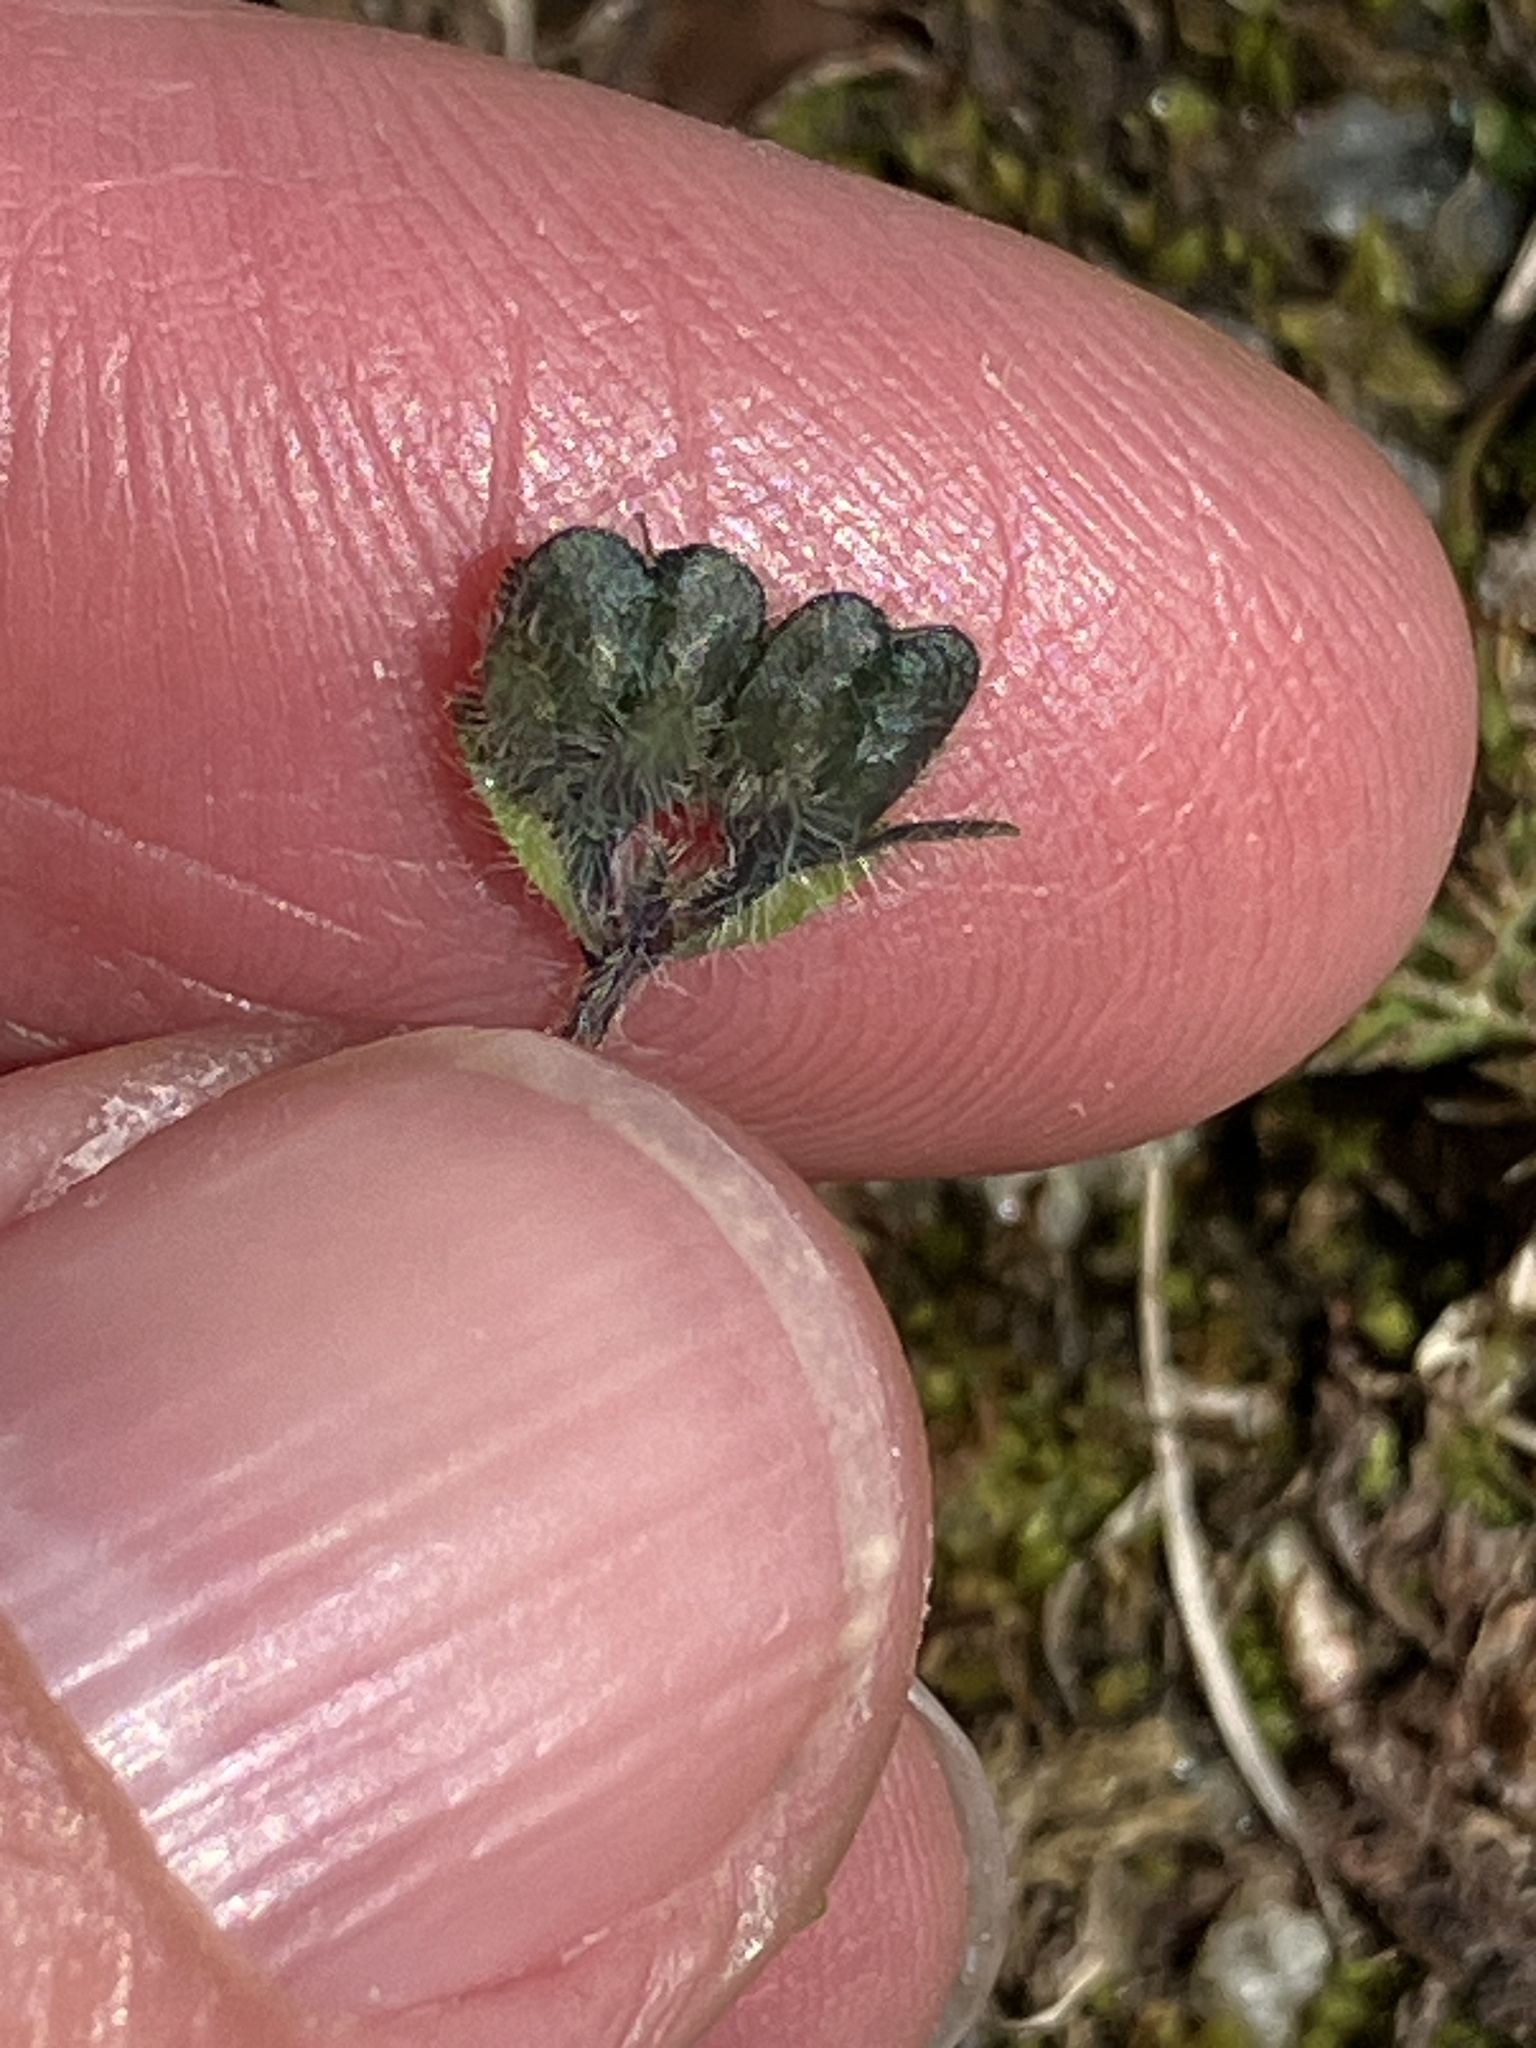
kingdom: Plantae
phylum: Tracheophyta
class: Magnoliopsida
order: Lamiales
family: Plantaginaceae
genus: Veronica
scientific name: Veronica alpina
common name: Alpine speedwell
